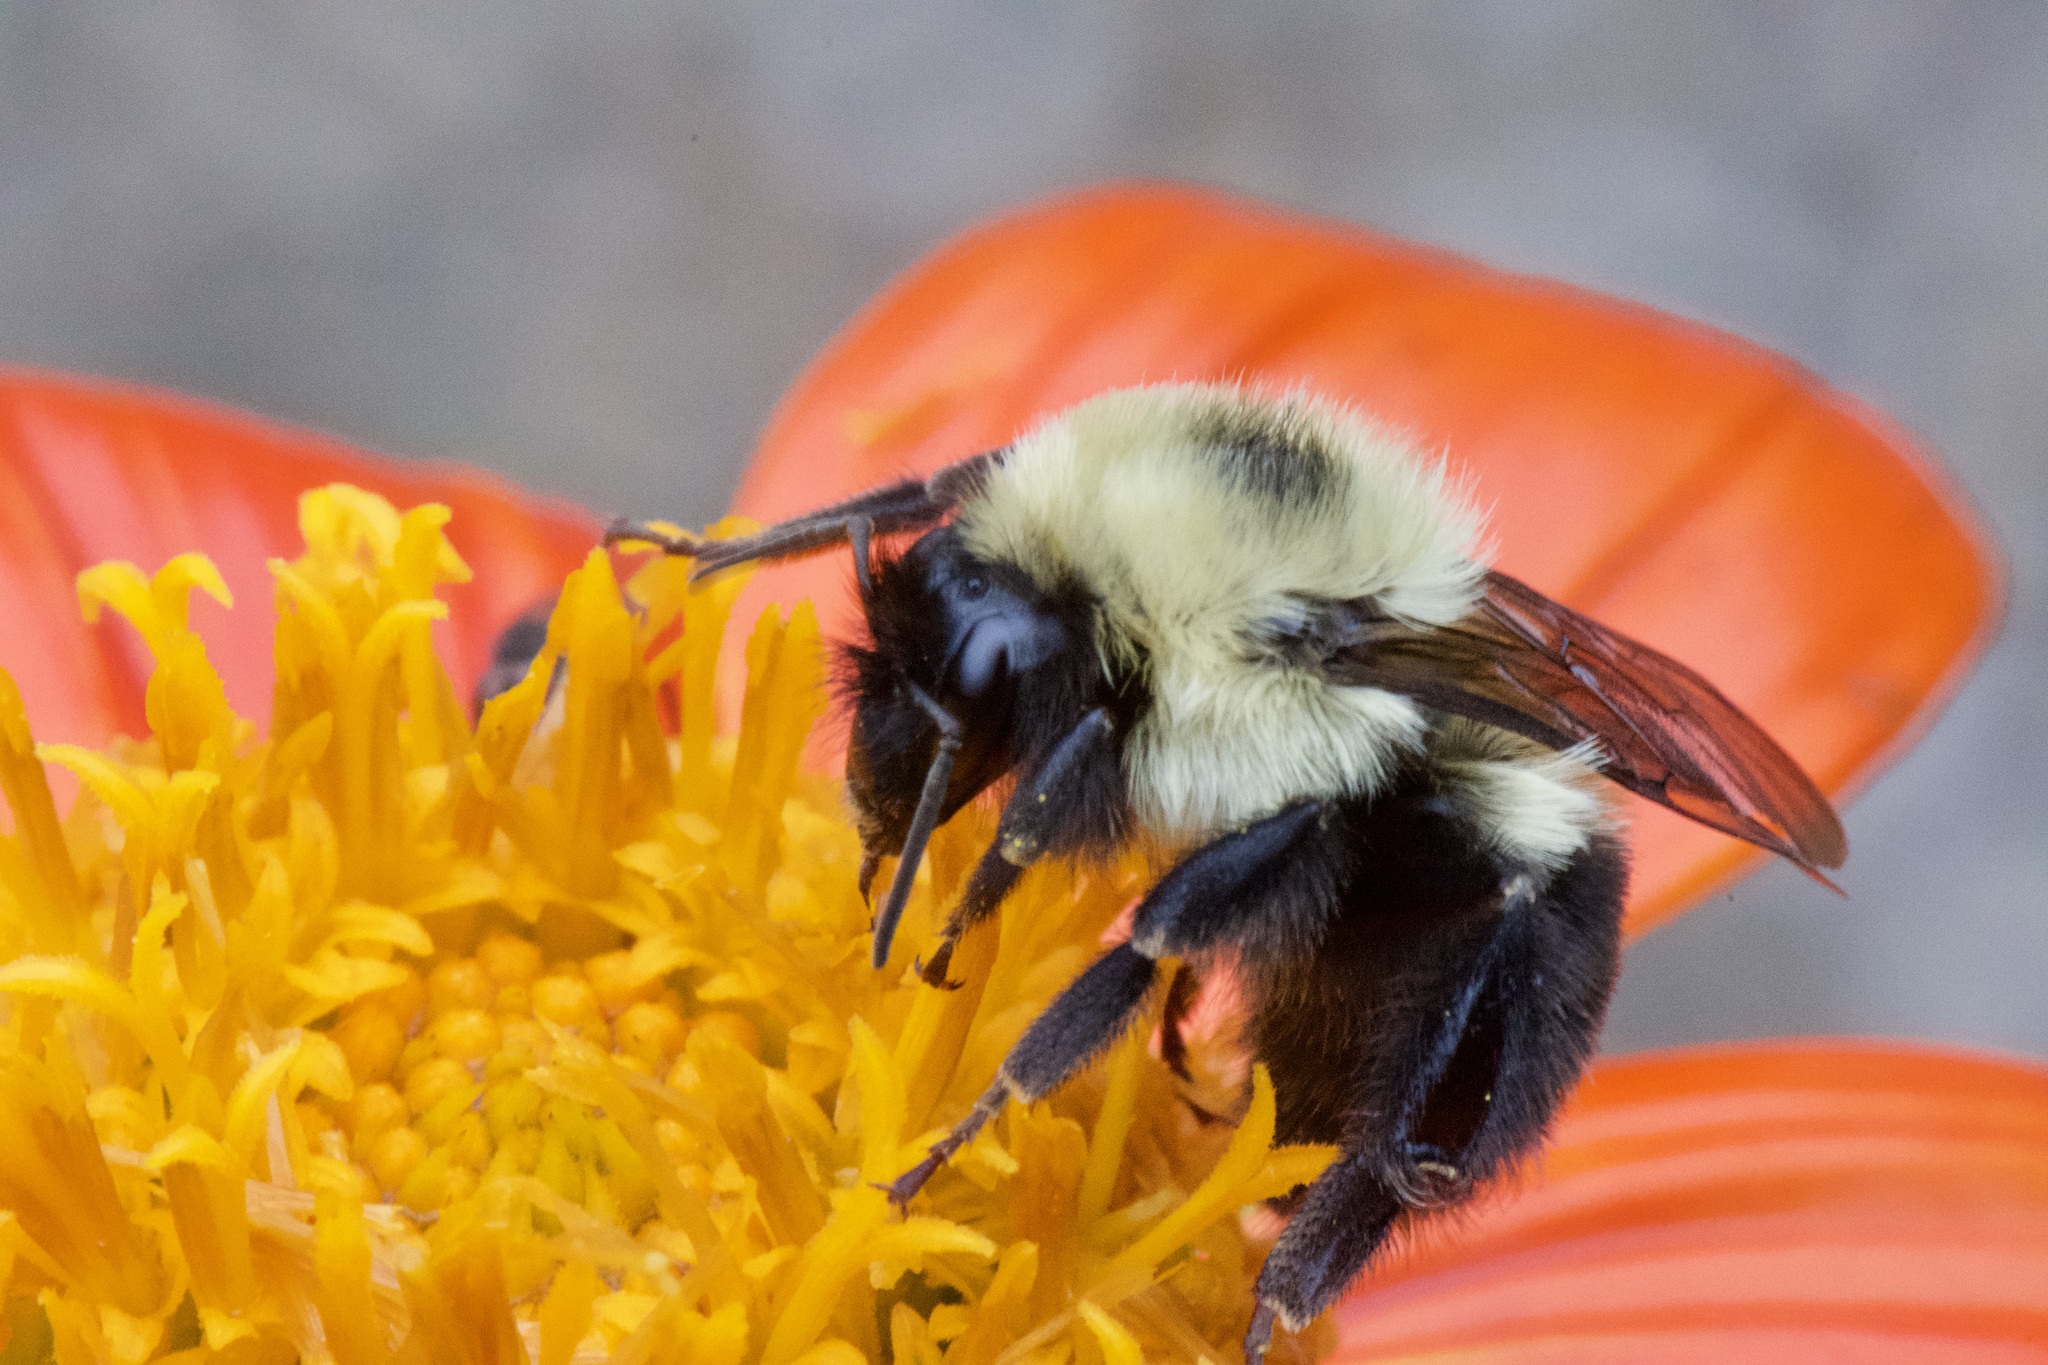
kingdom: Animalia
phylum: Arthropoda
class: Insecta
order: Hymenoptera
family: Apidae
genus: Bombus
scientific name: Bombus bimaculatus
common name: Two-spotted bumble bee
